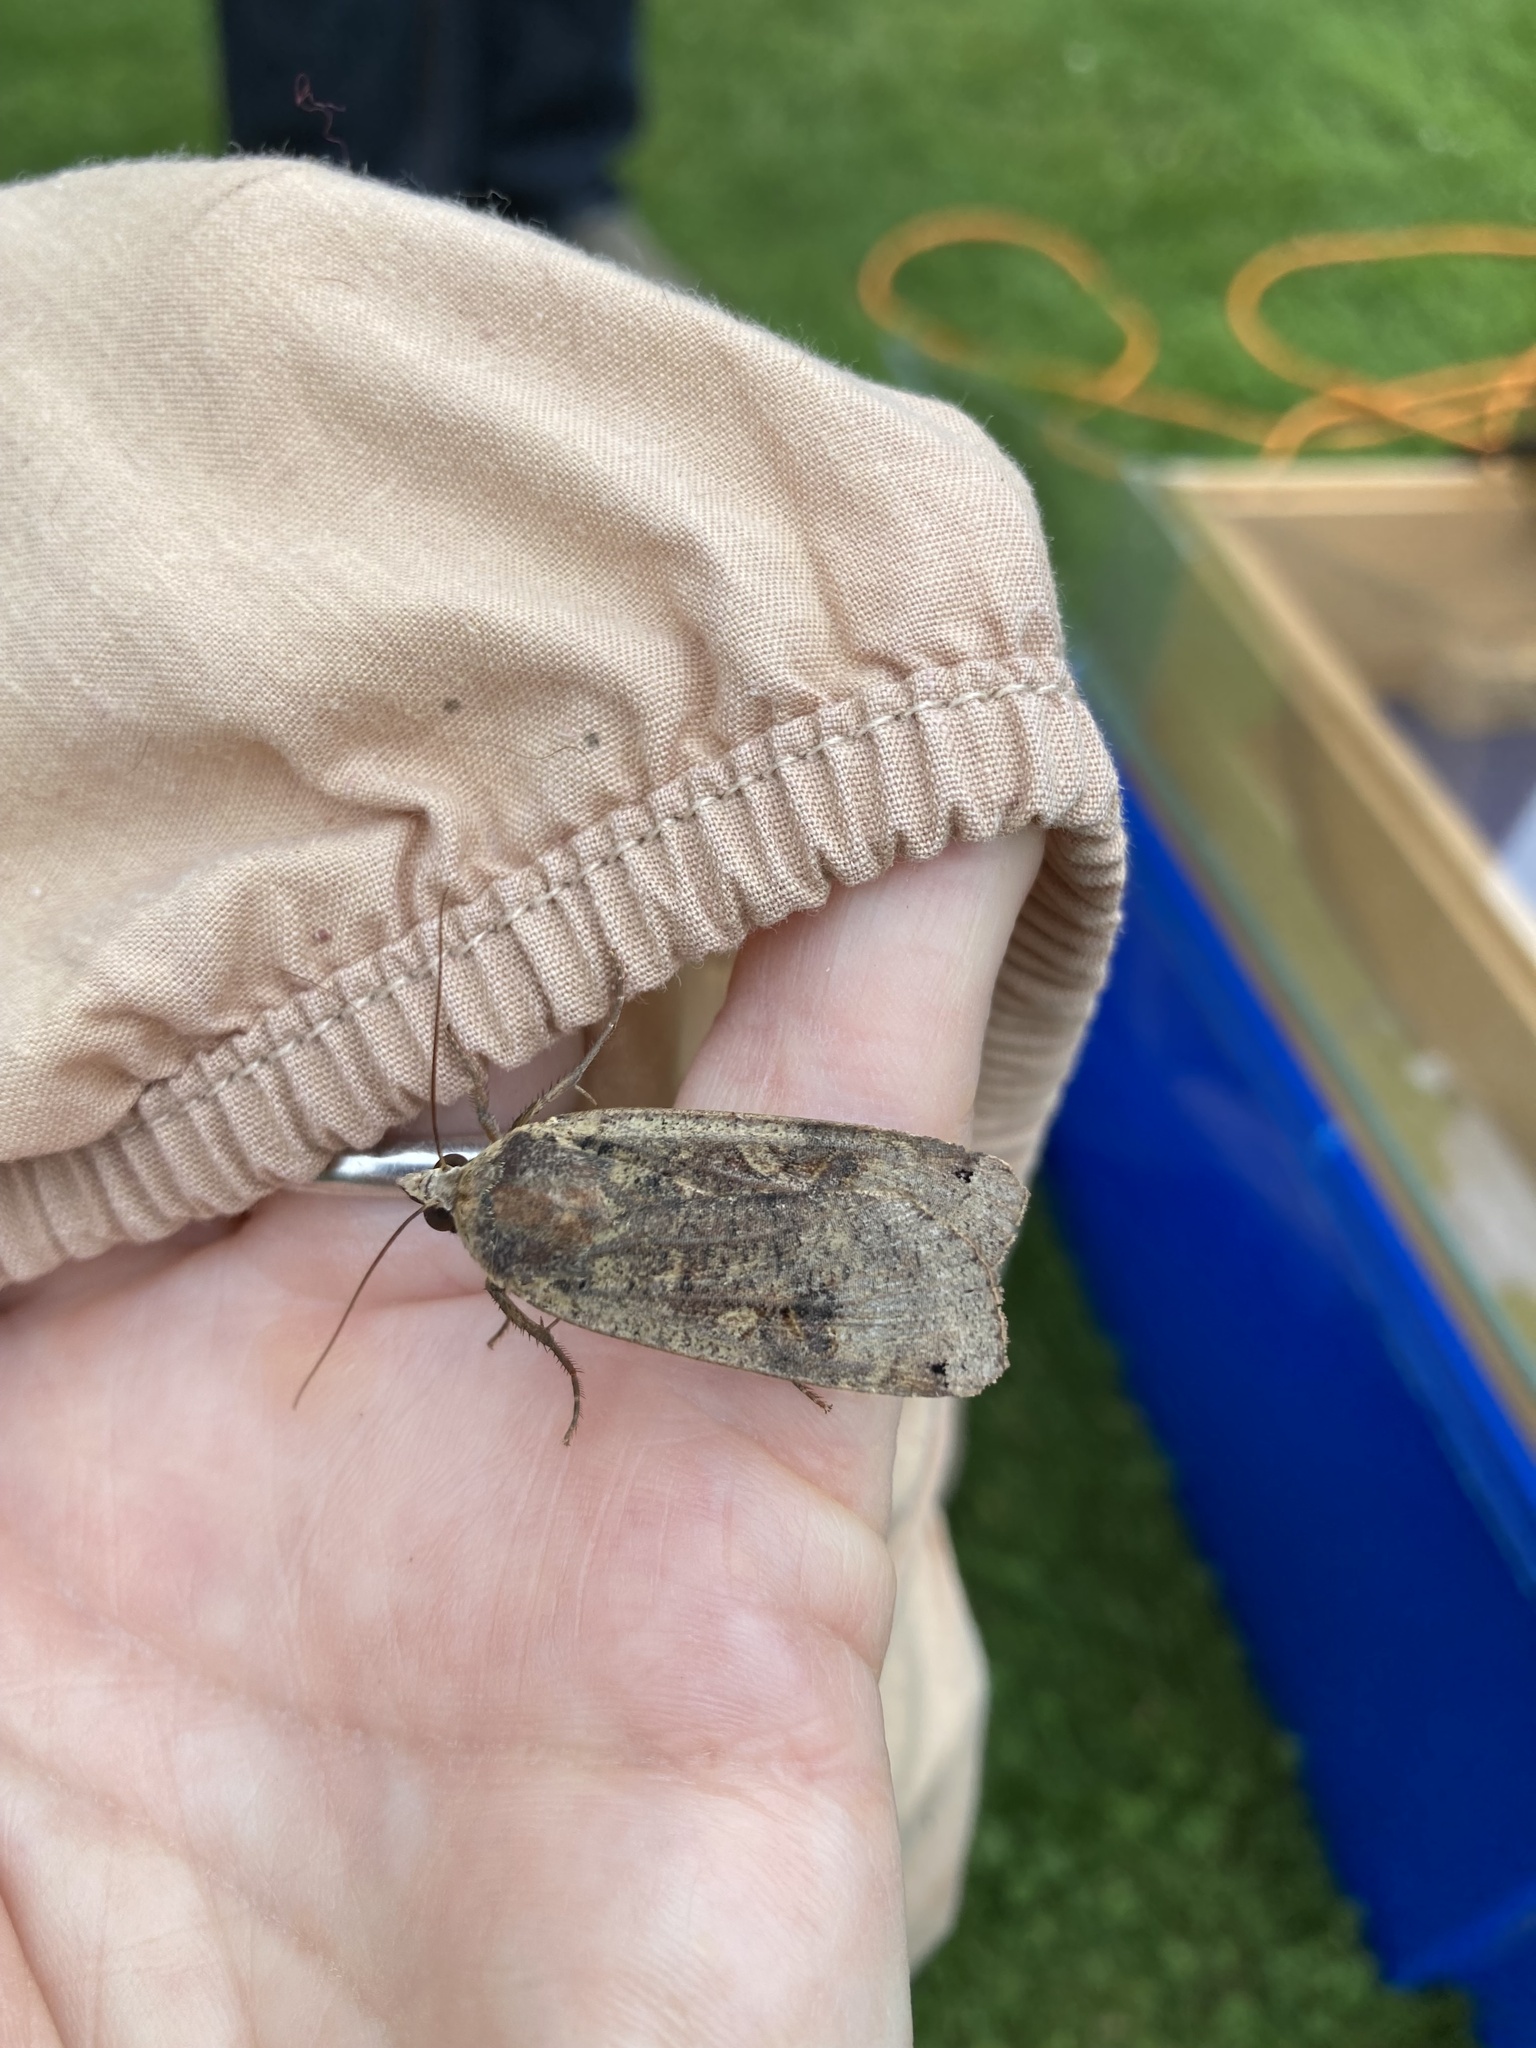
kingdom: Animalia
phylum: Arthropoda
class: Insecta
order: Lepidoptera
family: Noctuidae
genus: Noctua
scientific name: Noctua pronuba
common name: Large yellow underwing
